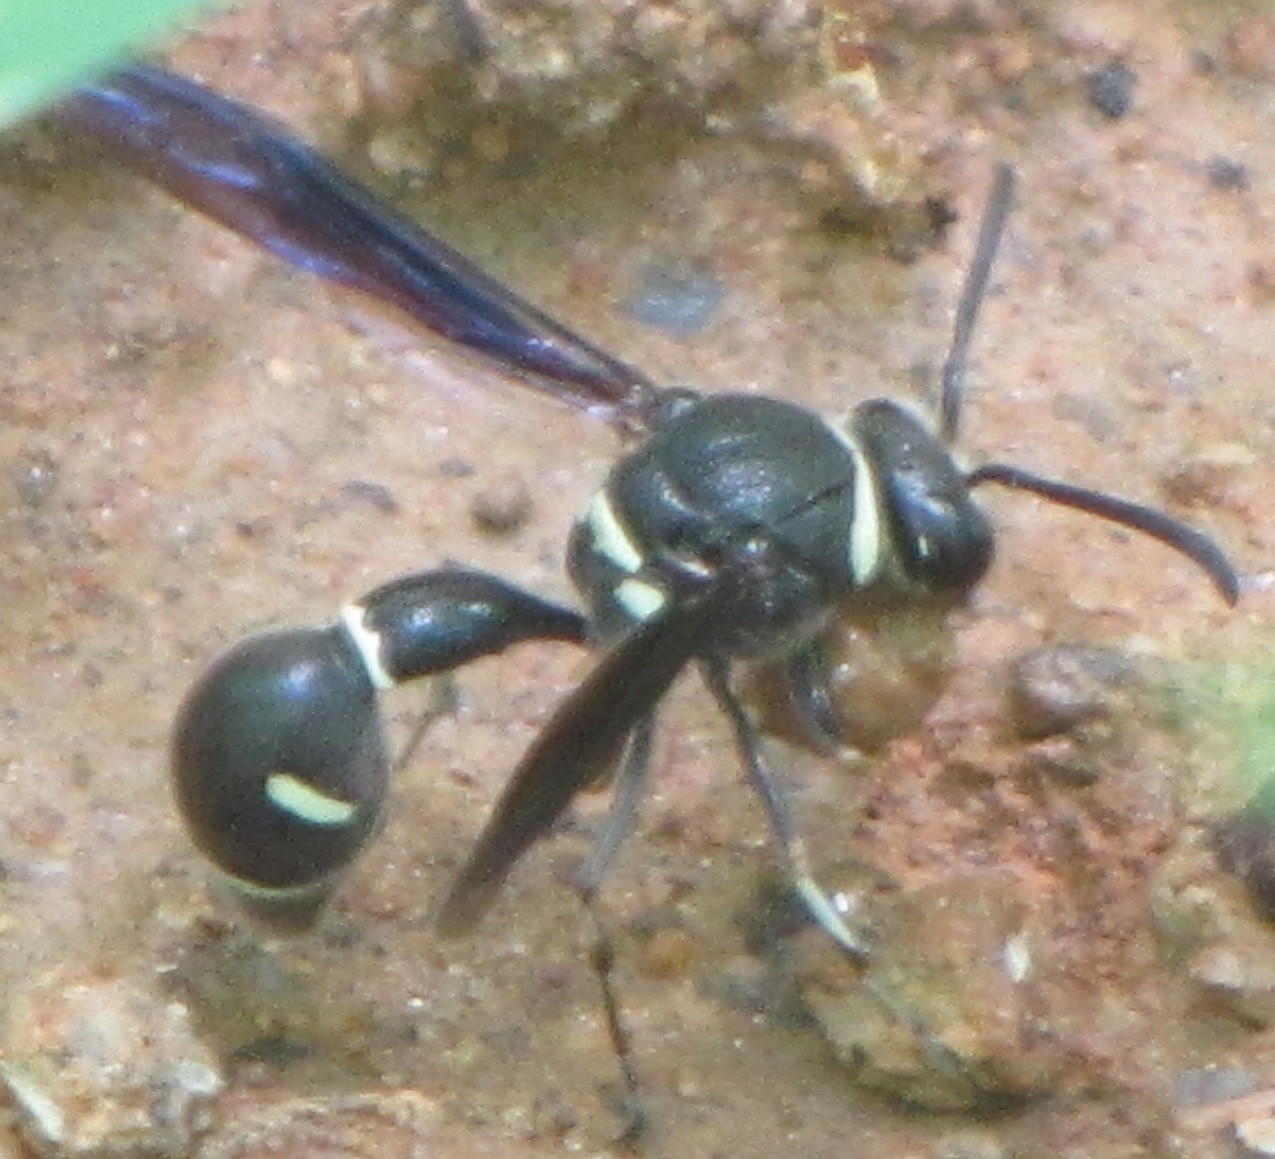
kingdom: Animalia
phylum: Arthropoda
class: Insecta
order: Hymenoptera
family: Vespidae
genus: Eumenes
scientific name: Eumenes fraternus
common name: Fraternal potter wasp
